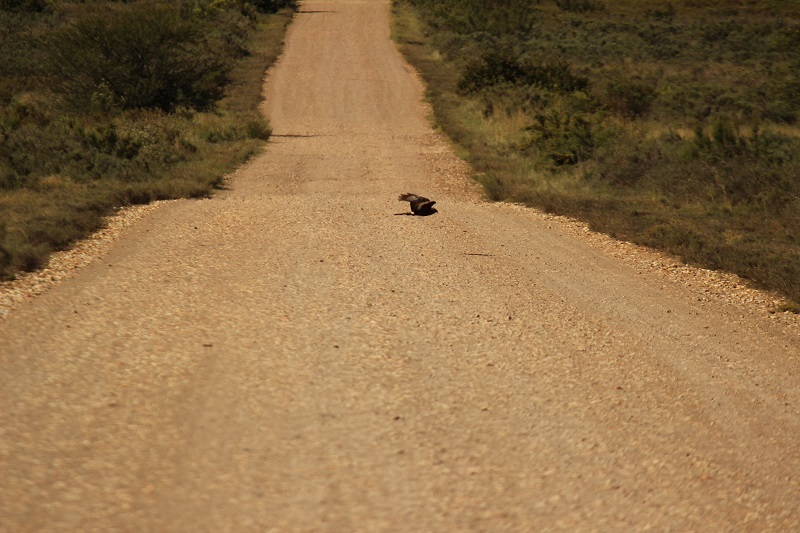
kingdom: Animalia
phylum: Chordata
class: Aves
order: Accipitriformes
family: Accipitridae
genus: Circus
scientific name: Circus maurus
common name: Black harrier
